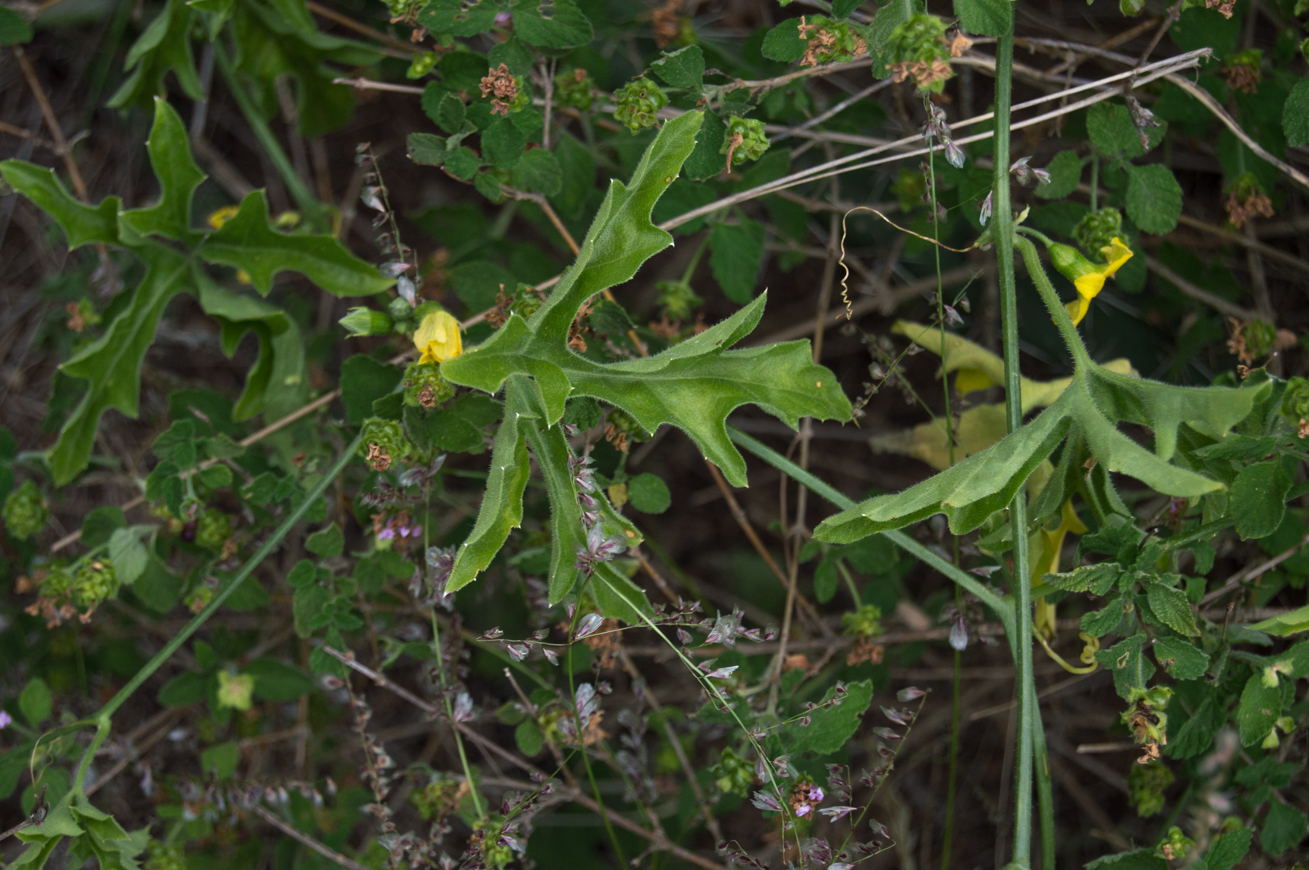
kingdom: Plantae
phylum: Tracheophyta
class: Magnoliopsida
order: Cucurbitales
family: Cucurbitaceae
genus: Cucurbitella
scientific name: Cucurbitella asperata
